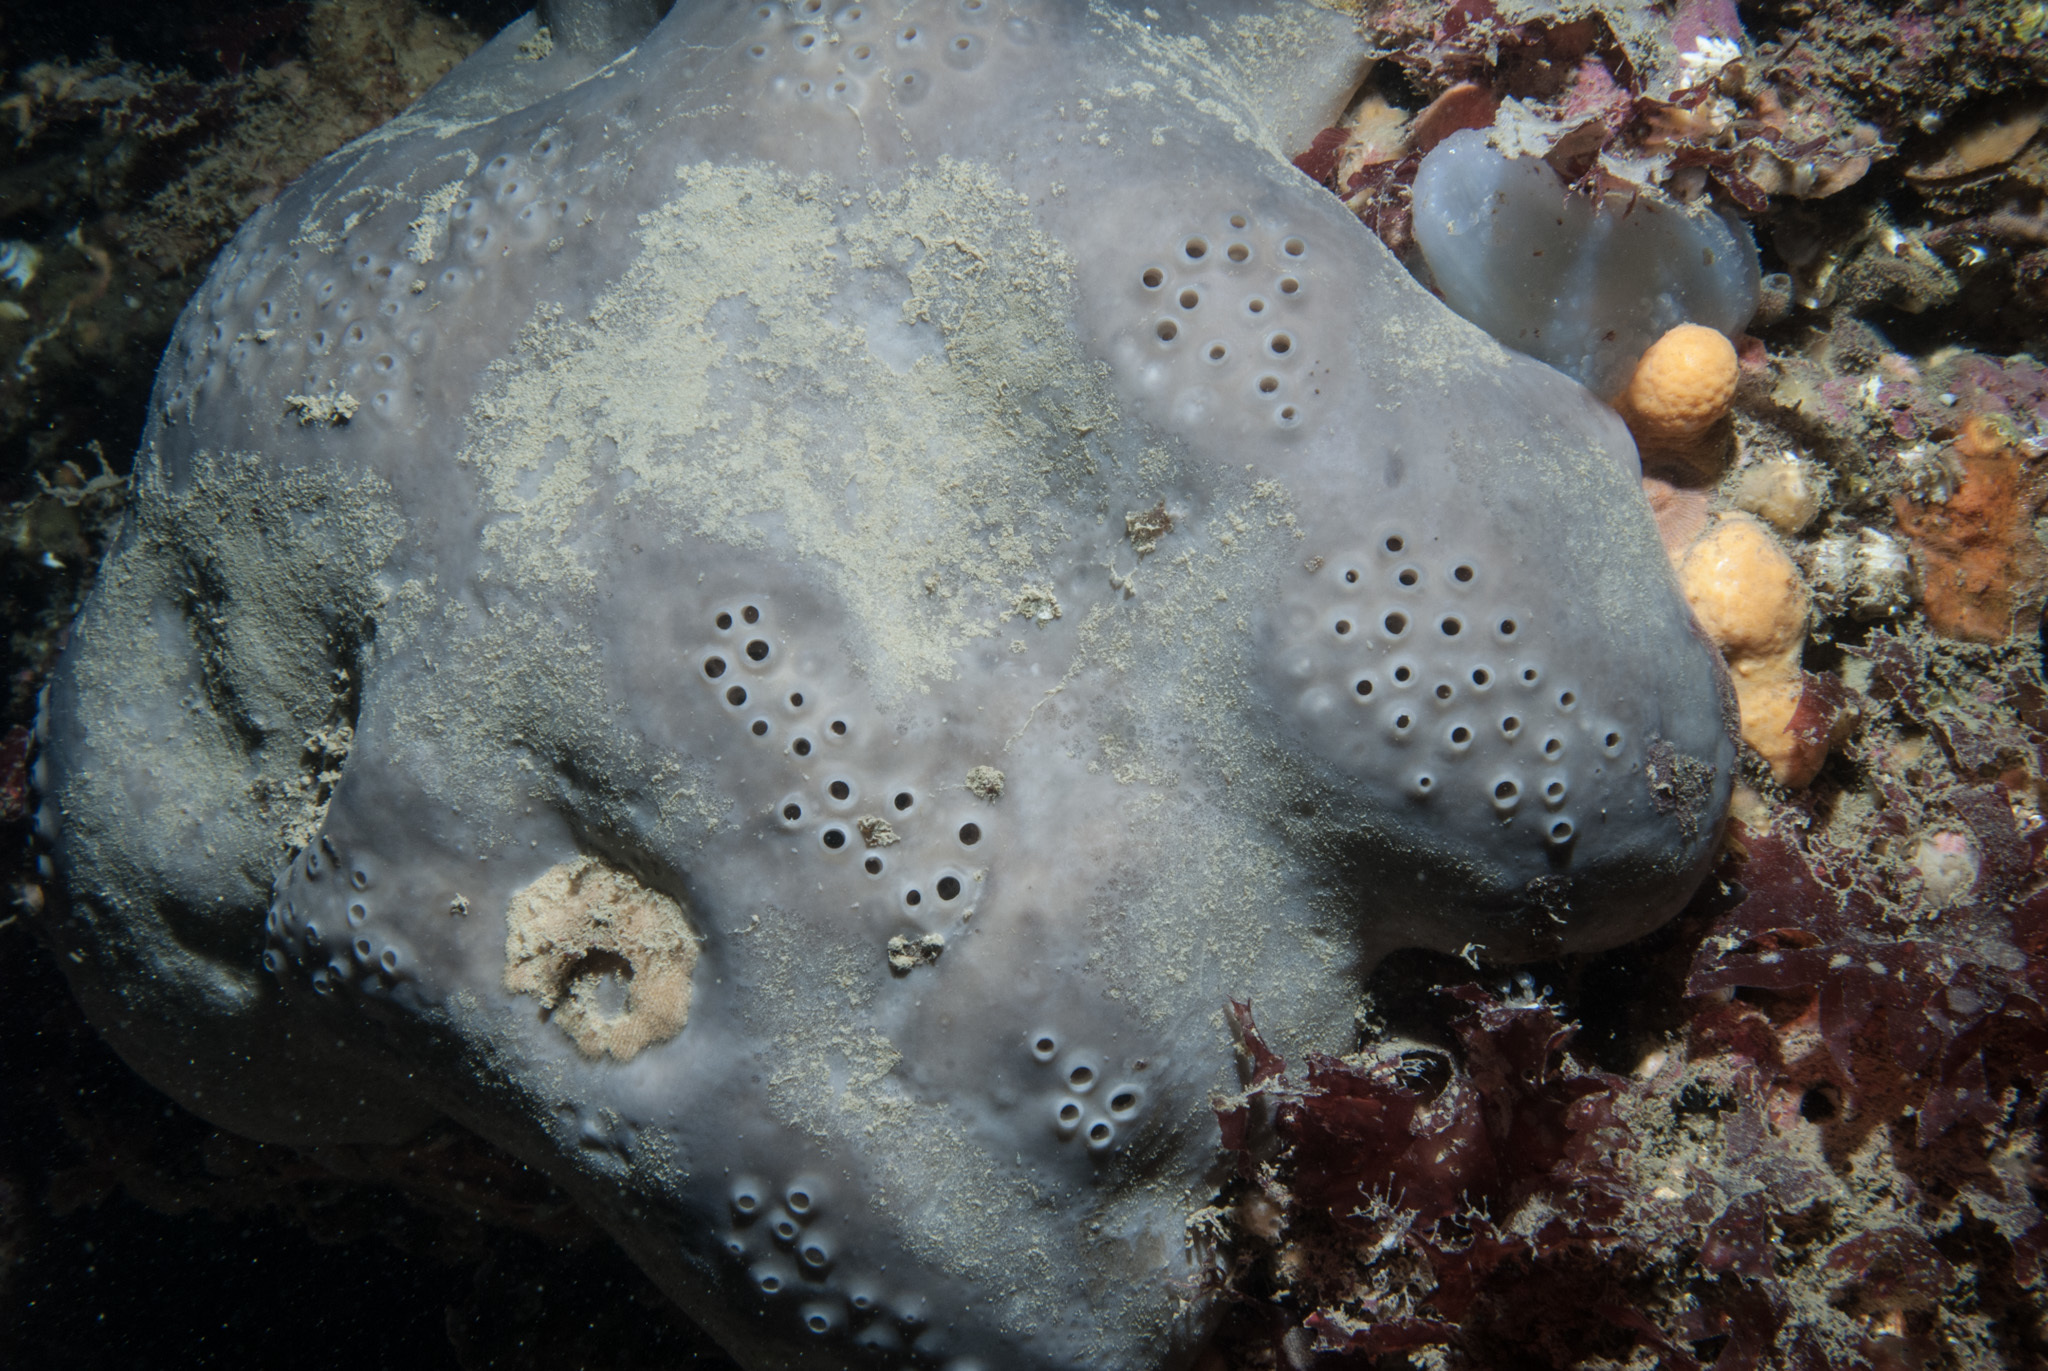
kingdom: Animalia
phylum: Porifera
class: Demospongiae
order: Tetractinellida
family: Geodiidae
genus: Pachymatisma
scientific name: Pachymatisma johnstonia
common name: Elephant ear sponge
